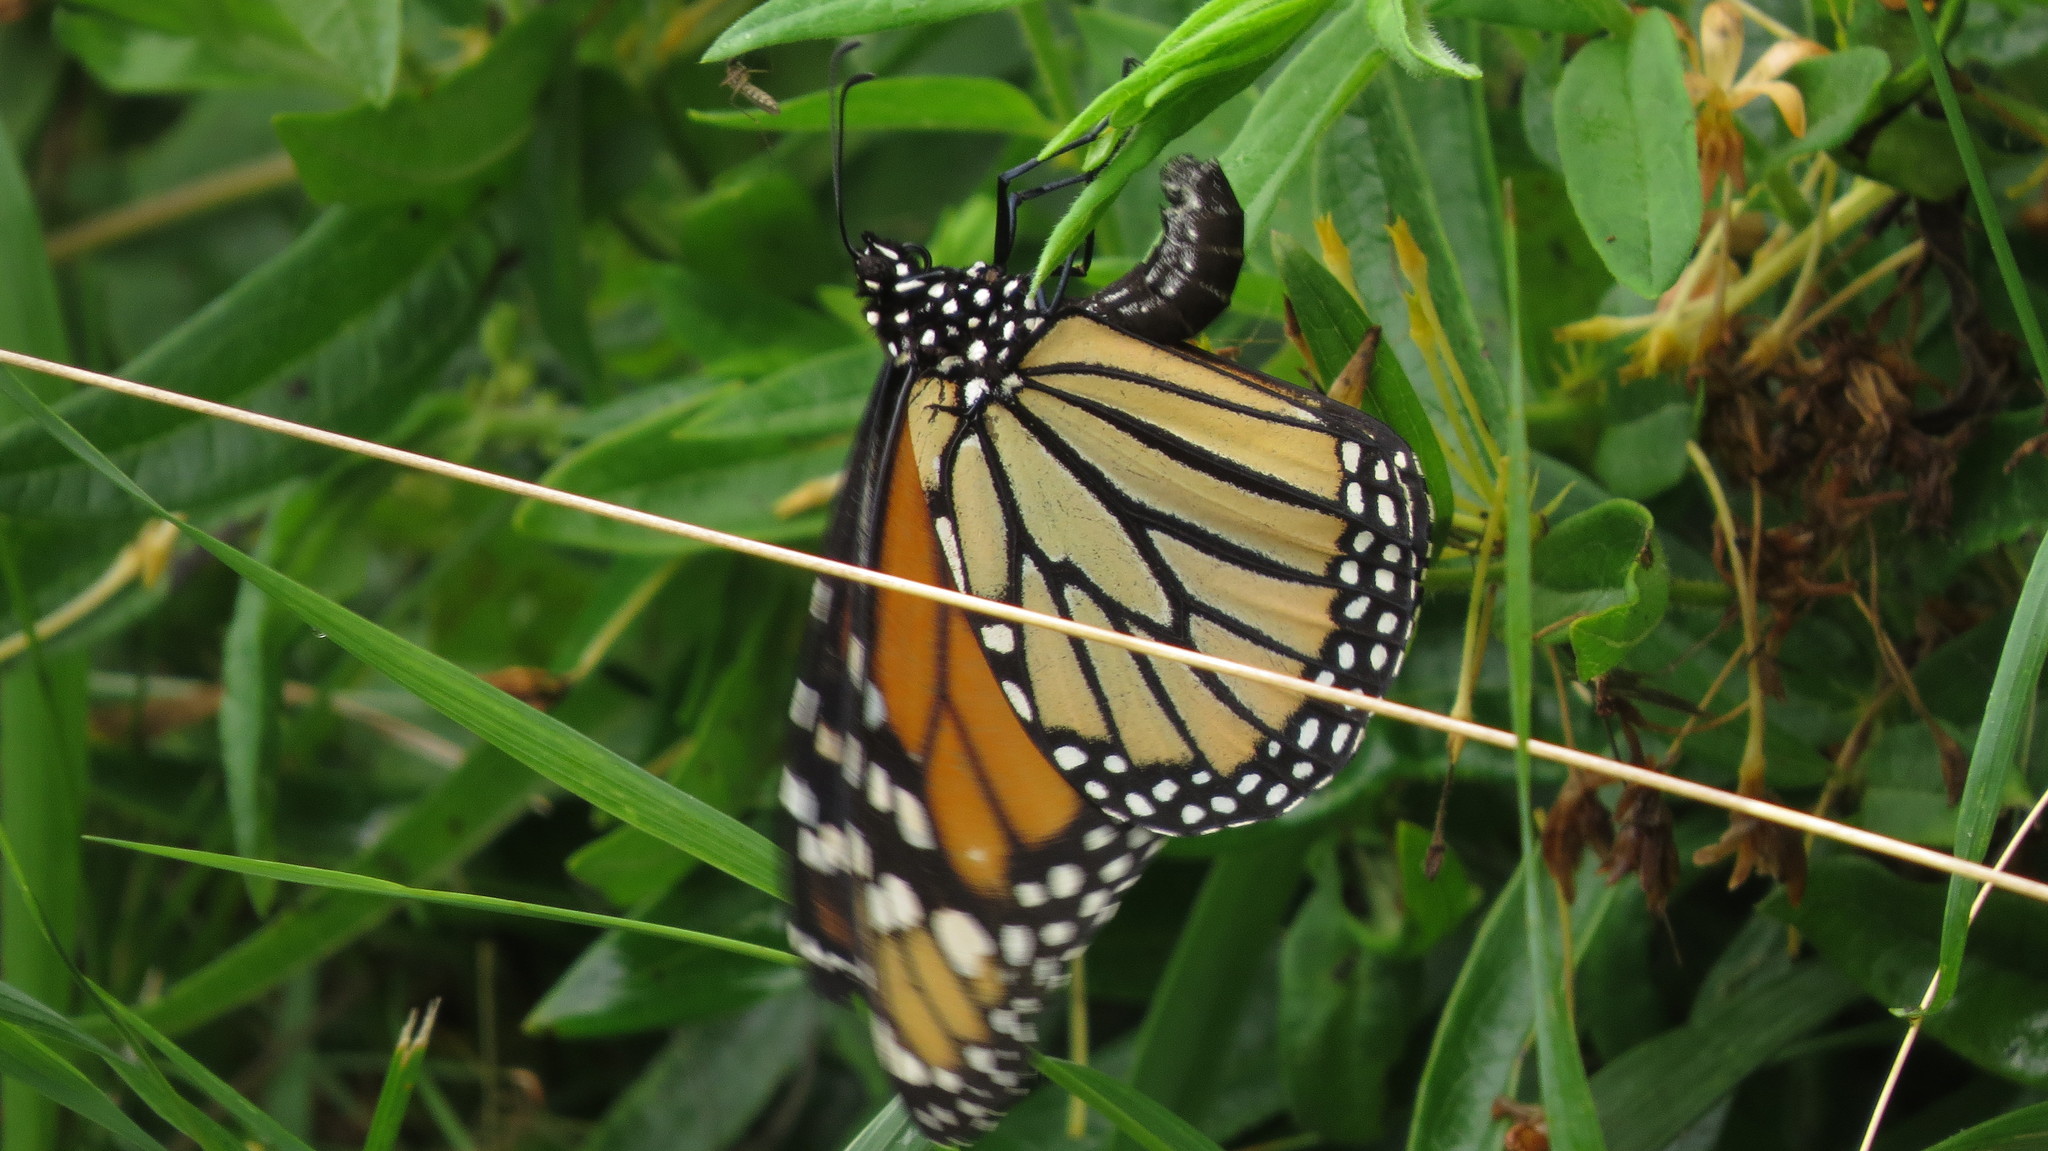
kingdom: Animalia
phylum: Arthropoda
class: Insecta
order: Lepidoptera
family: Nymphalidae
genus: Danaus
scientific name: Danaus plexippus
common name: Monarch
